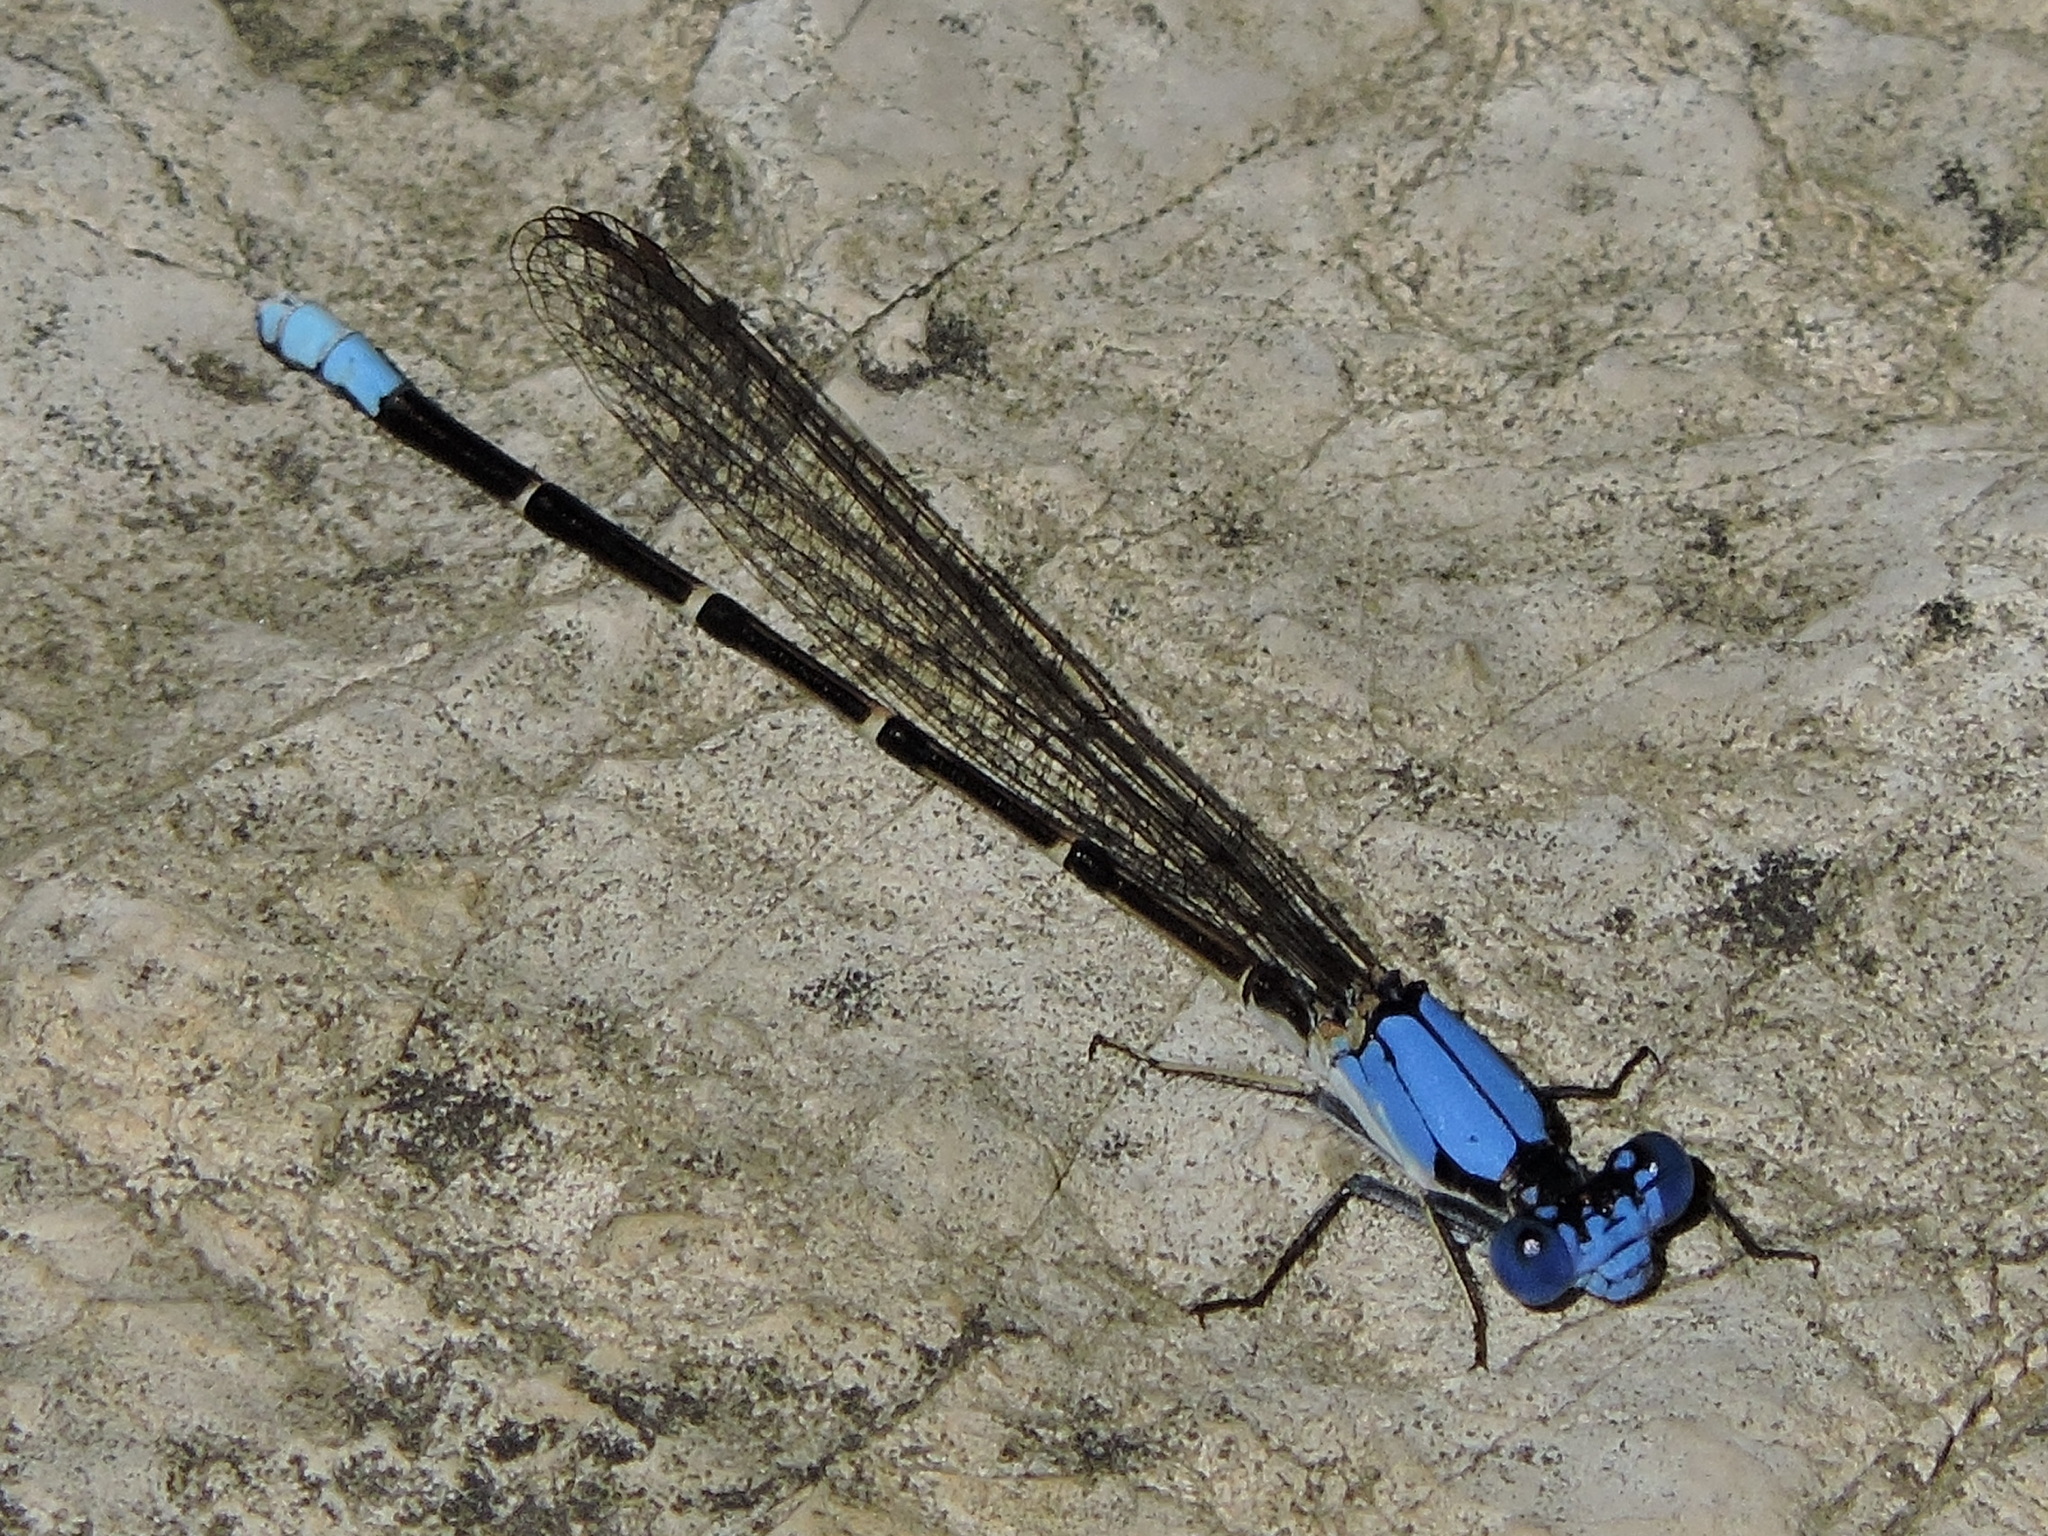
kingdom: Animalia
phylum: Arthropoda
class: Insecta
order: Odonata
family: Coenagrionidae
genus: Argia
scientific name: Argia apicalis
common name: Blue-fronted dancer
